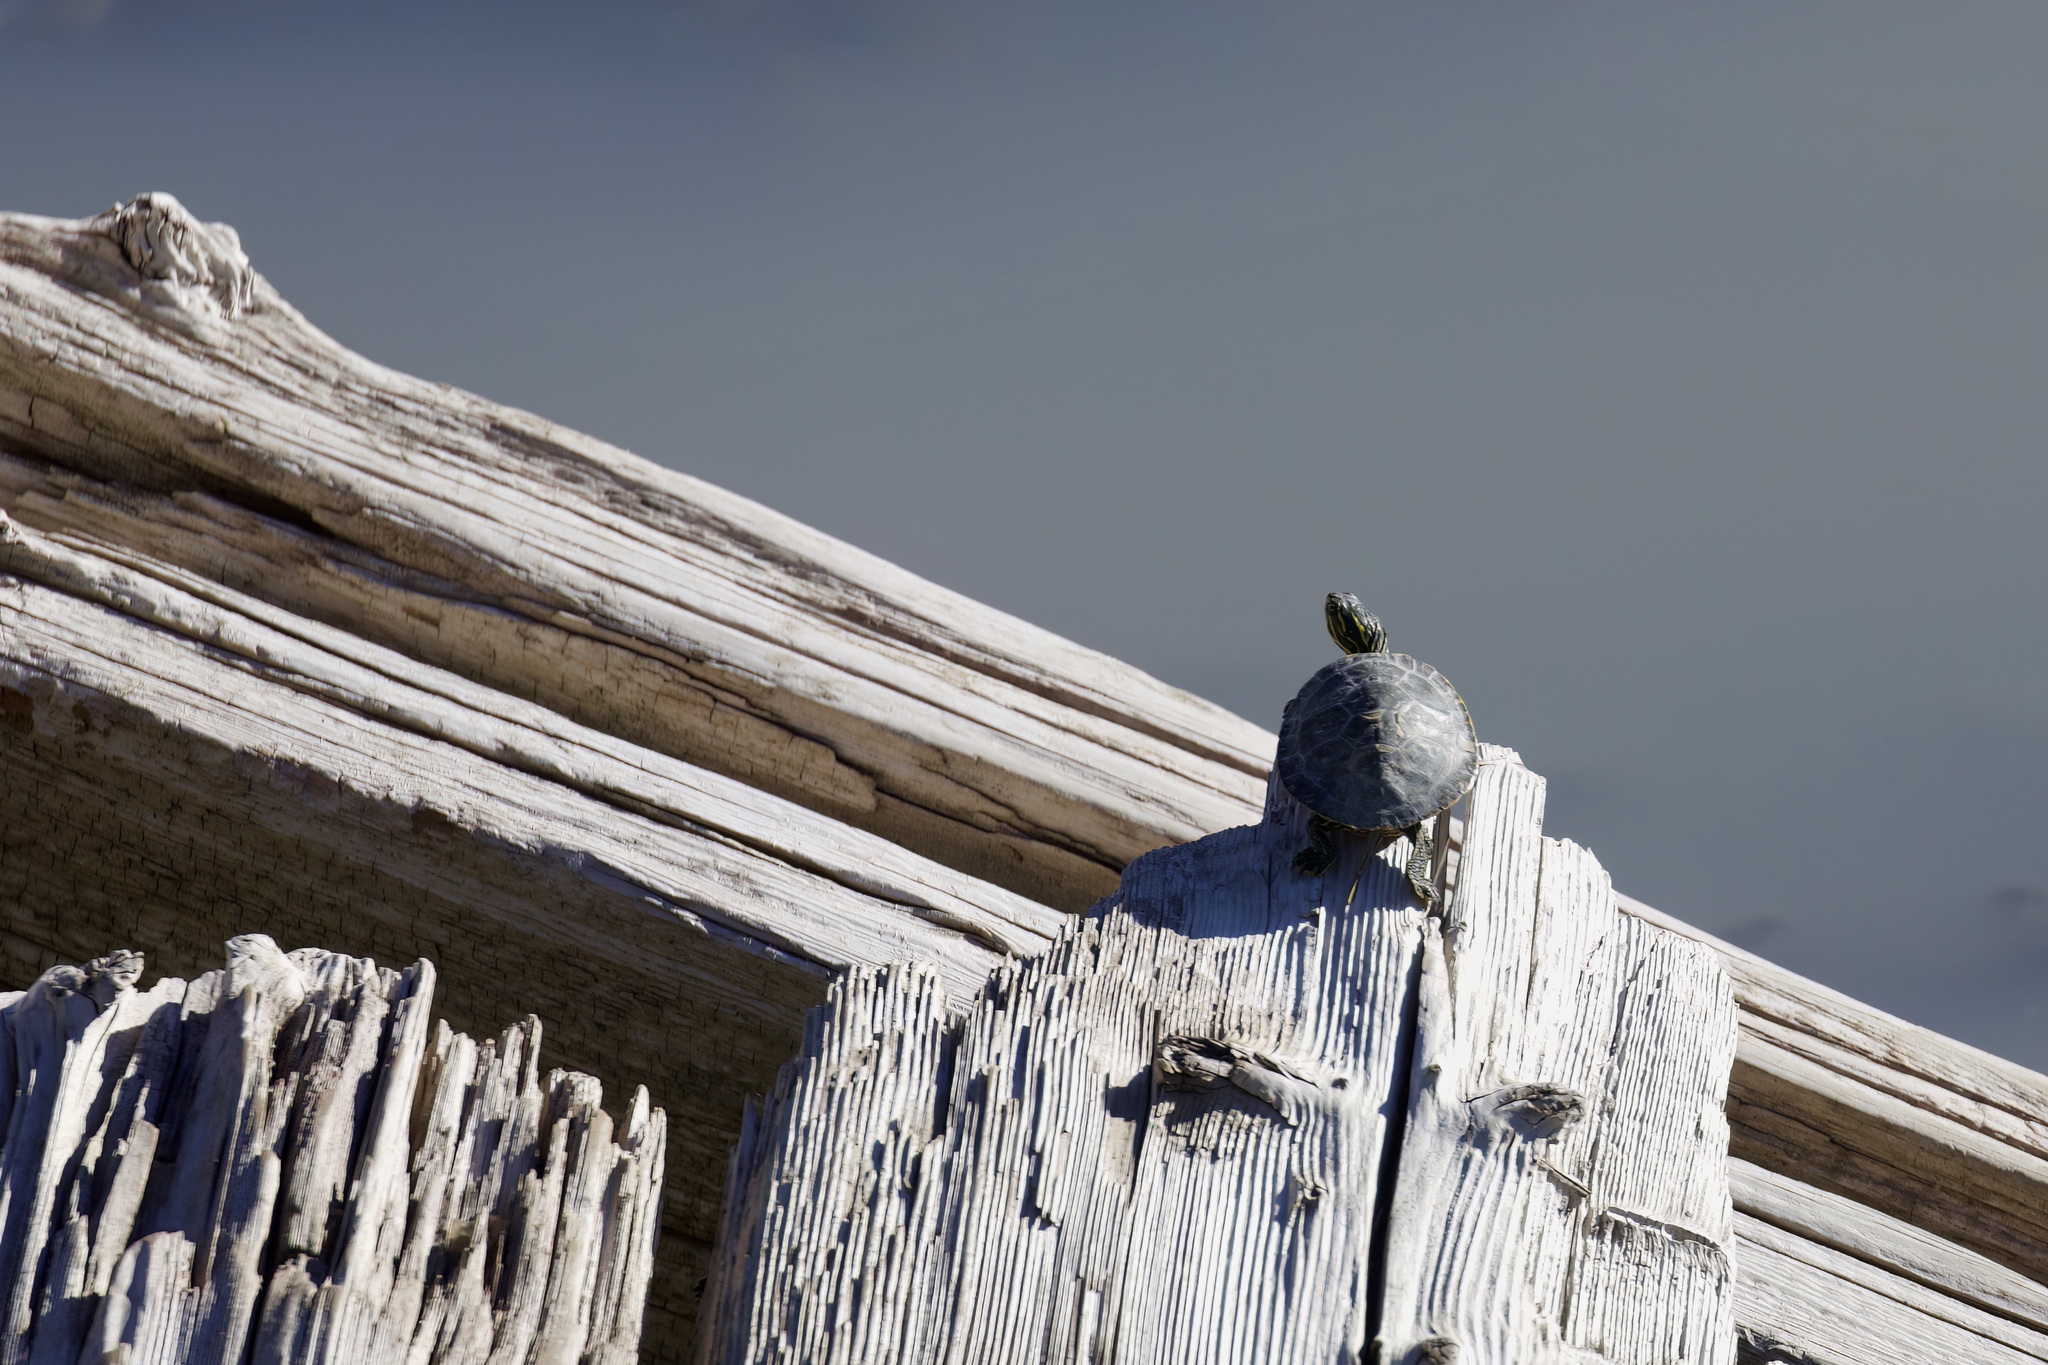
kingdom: Animalia
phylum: Chordata
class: Testudines
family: Emydidae
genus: Chrysemys
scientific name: Chrysemys picta
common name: Painted turtle
